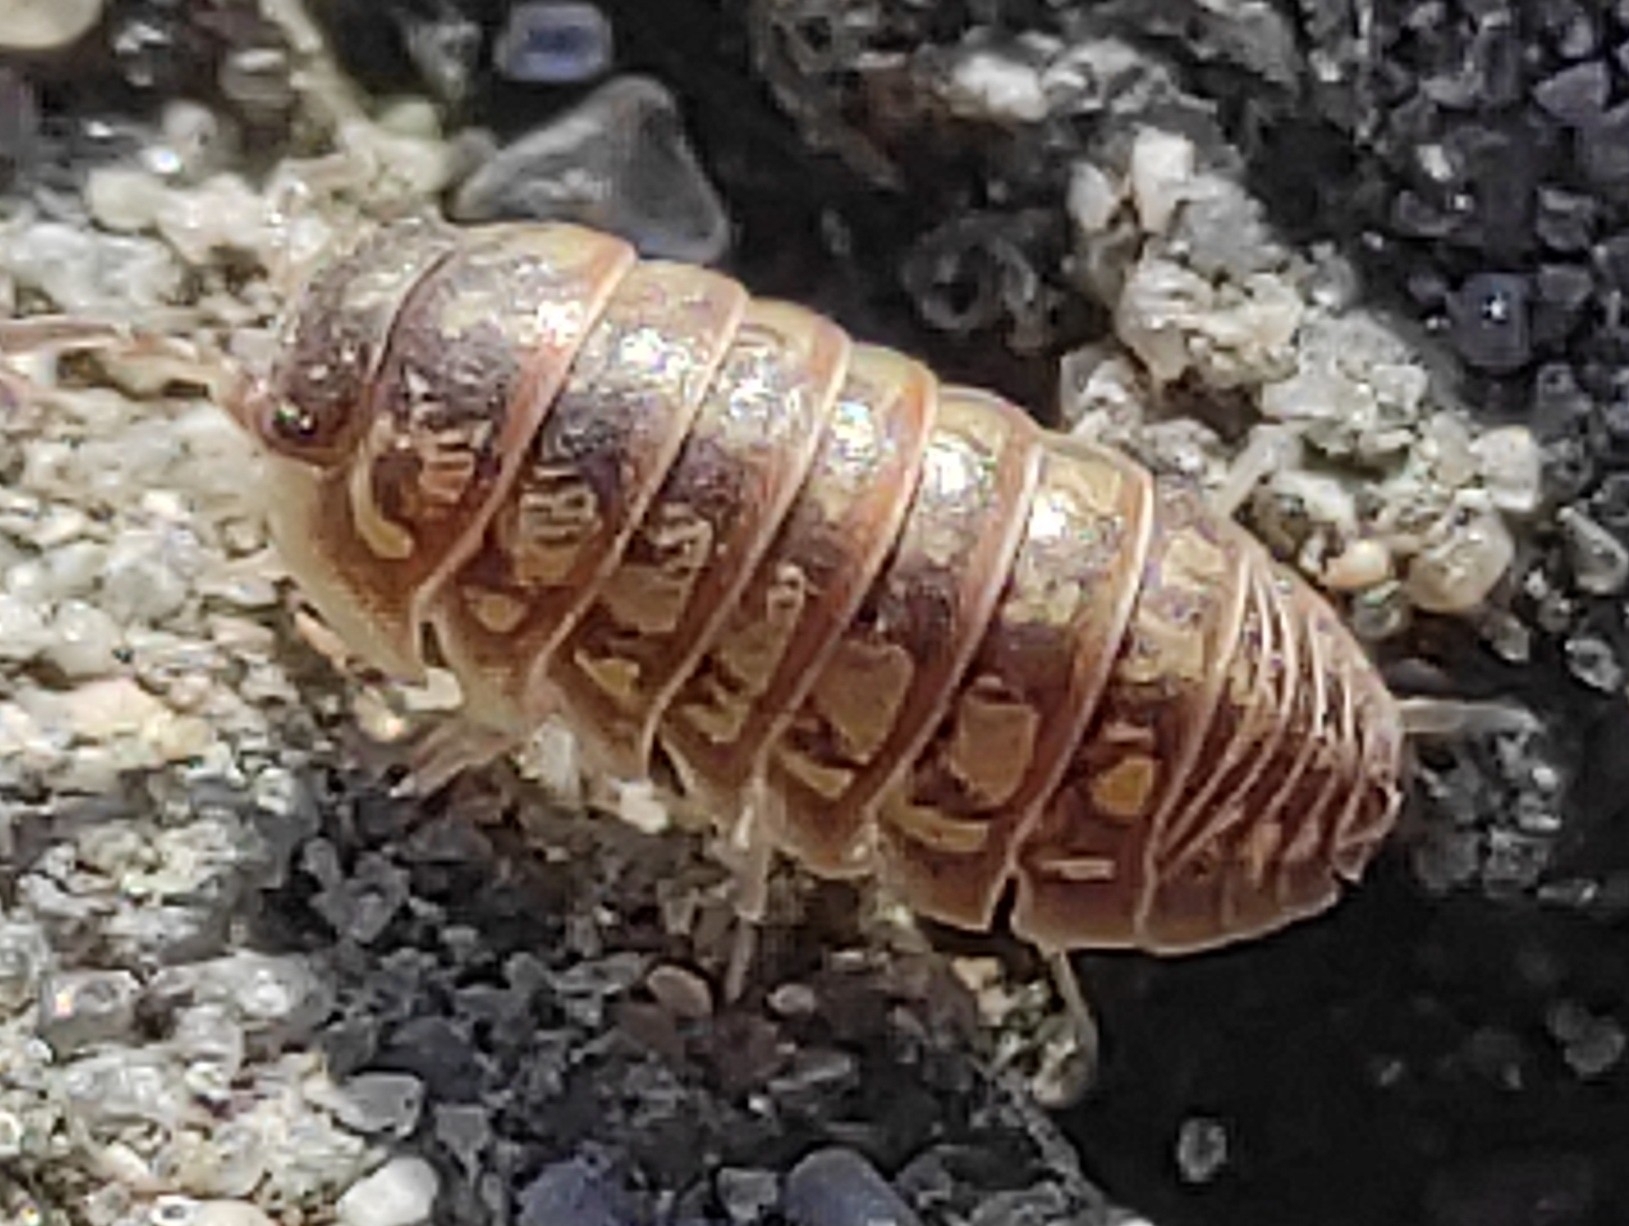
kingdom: Animalia
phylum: Arthropoda
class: Malacostraca
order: Isopoda
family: Armadillidiidae
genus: Armadillidium
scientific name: Armadillidium versicolor
